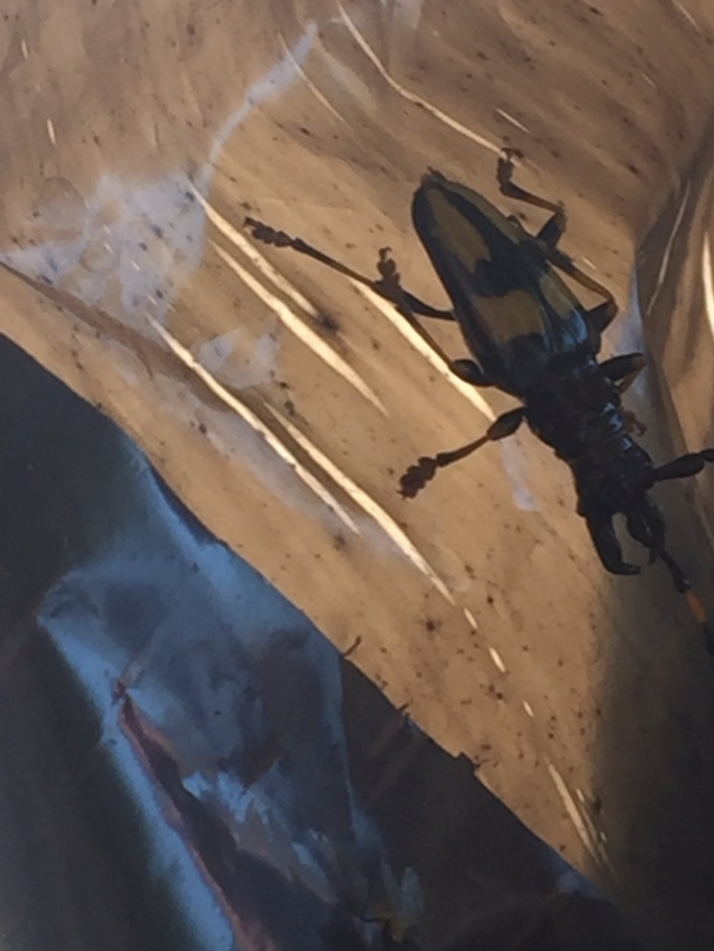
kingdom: Animalia
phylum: Arthropoda
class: Insecta
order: Coleoptera
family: Cerambycidae
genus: Trachyderes
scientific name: Trachyderes mandibularis
